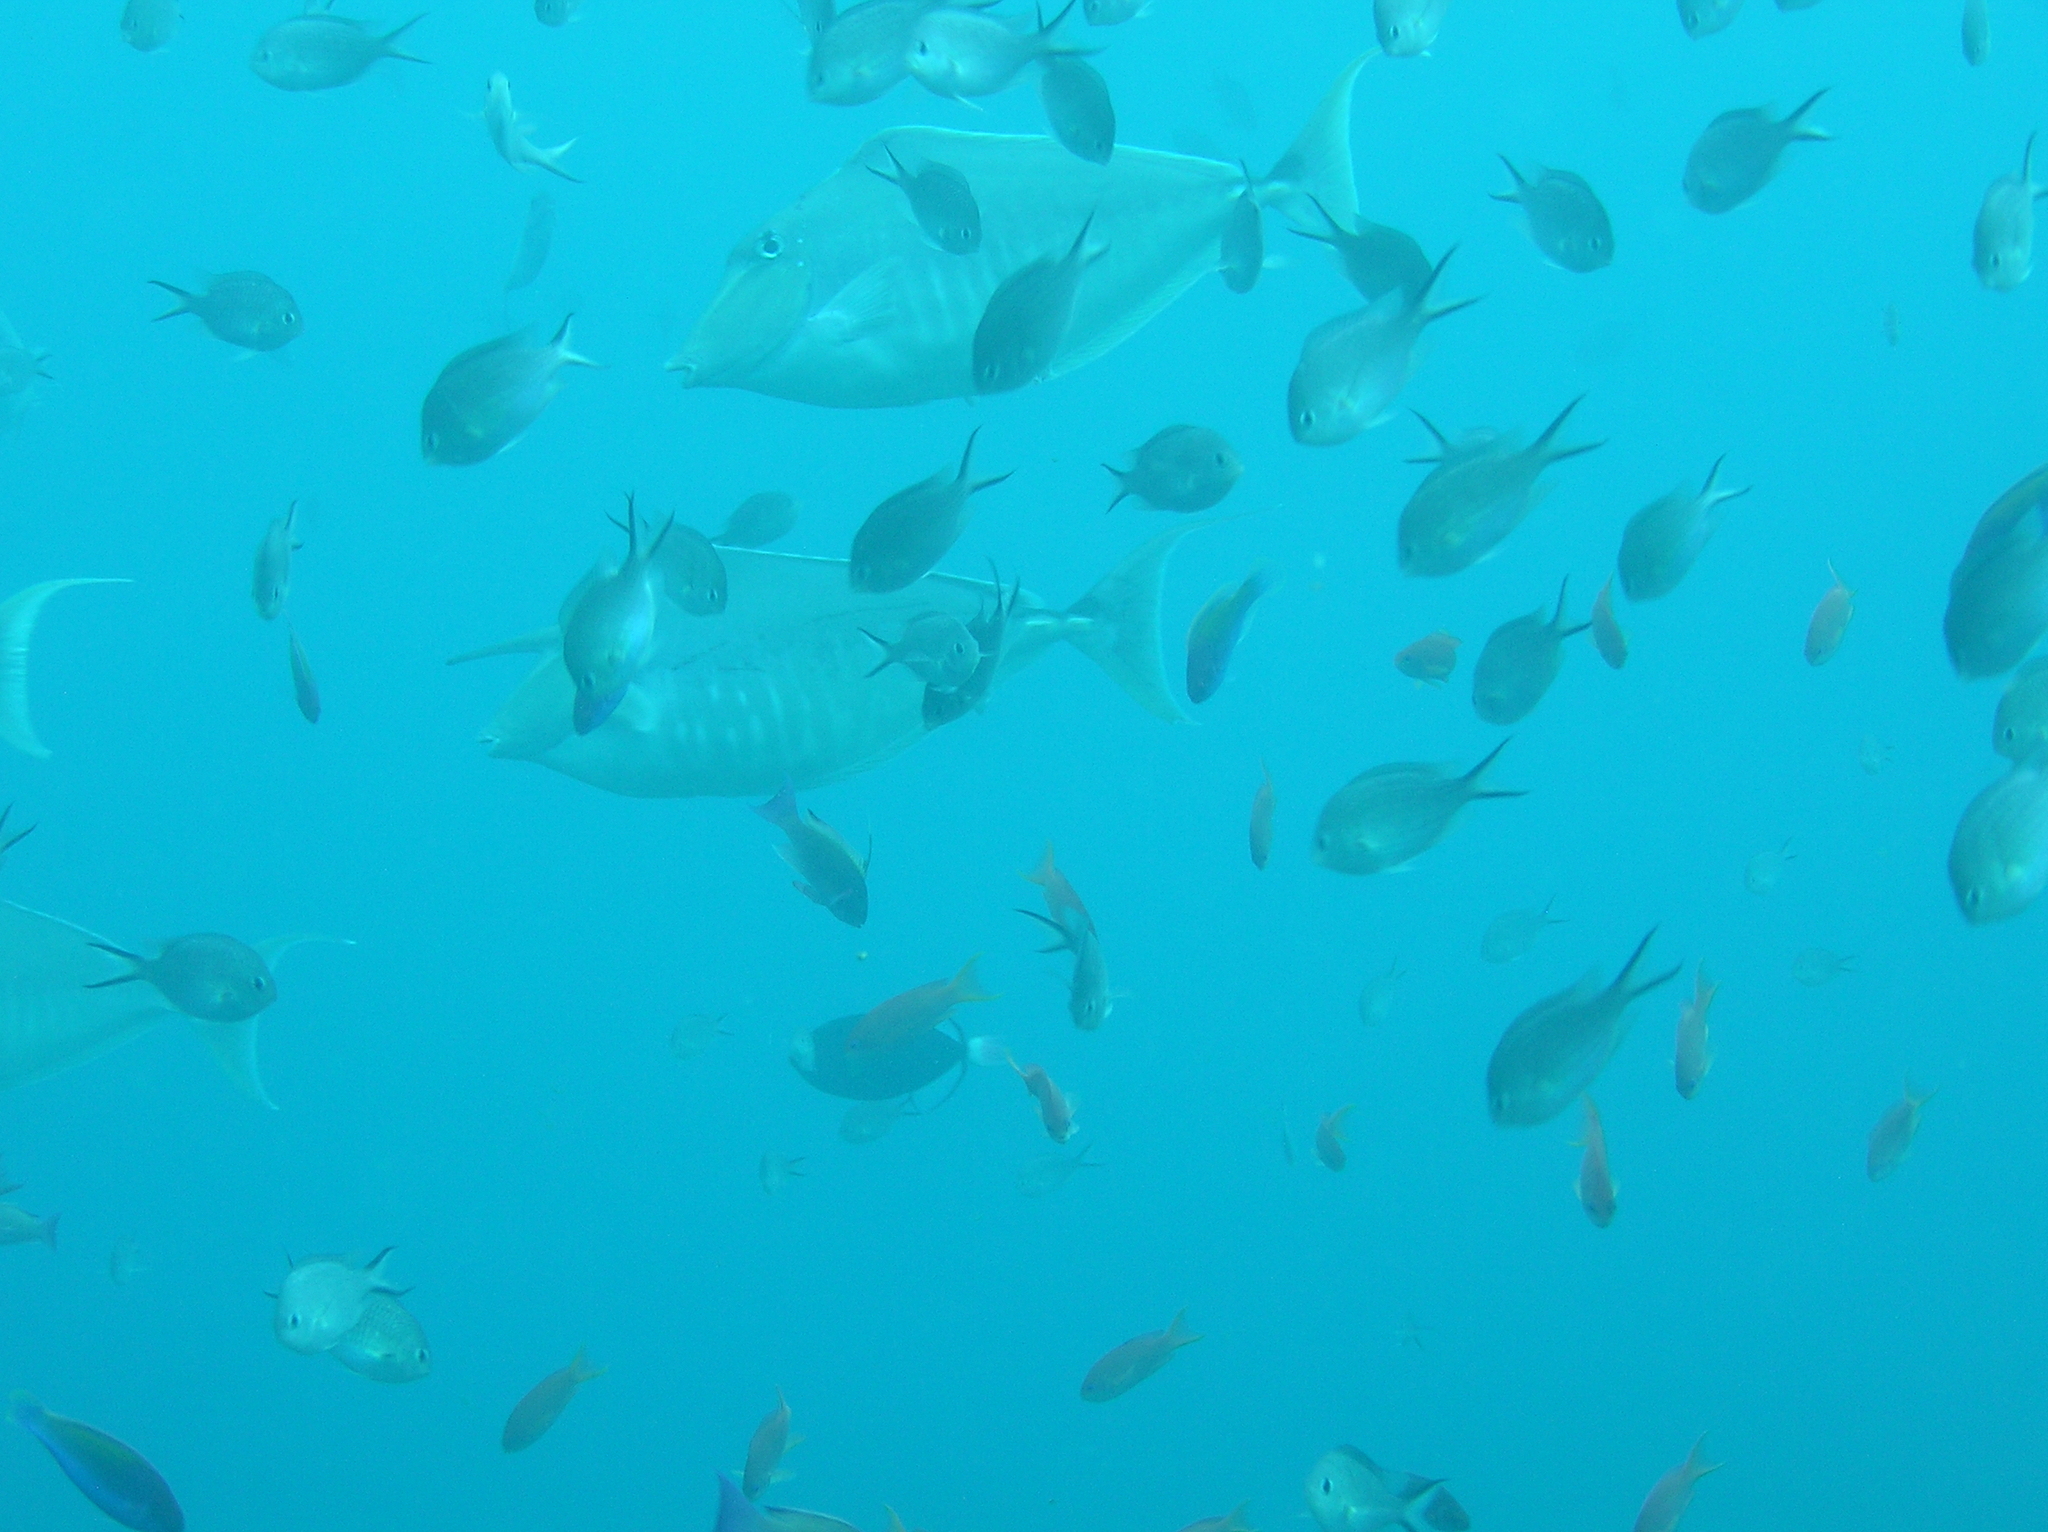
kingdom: Animalia
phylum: Chordata
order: Perciformes
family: Acanthuridae
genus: Naso
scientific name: Naso brachycentron
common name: Humpback unicornfish
